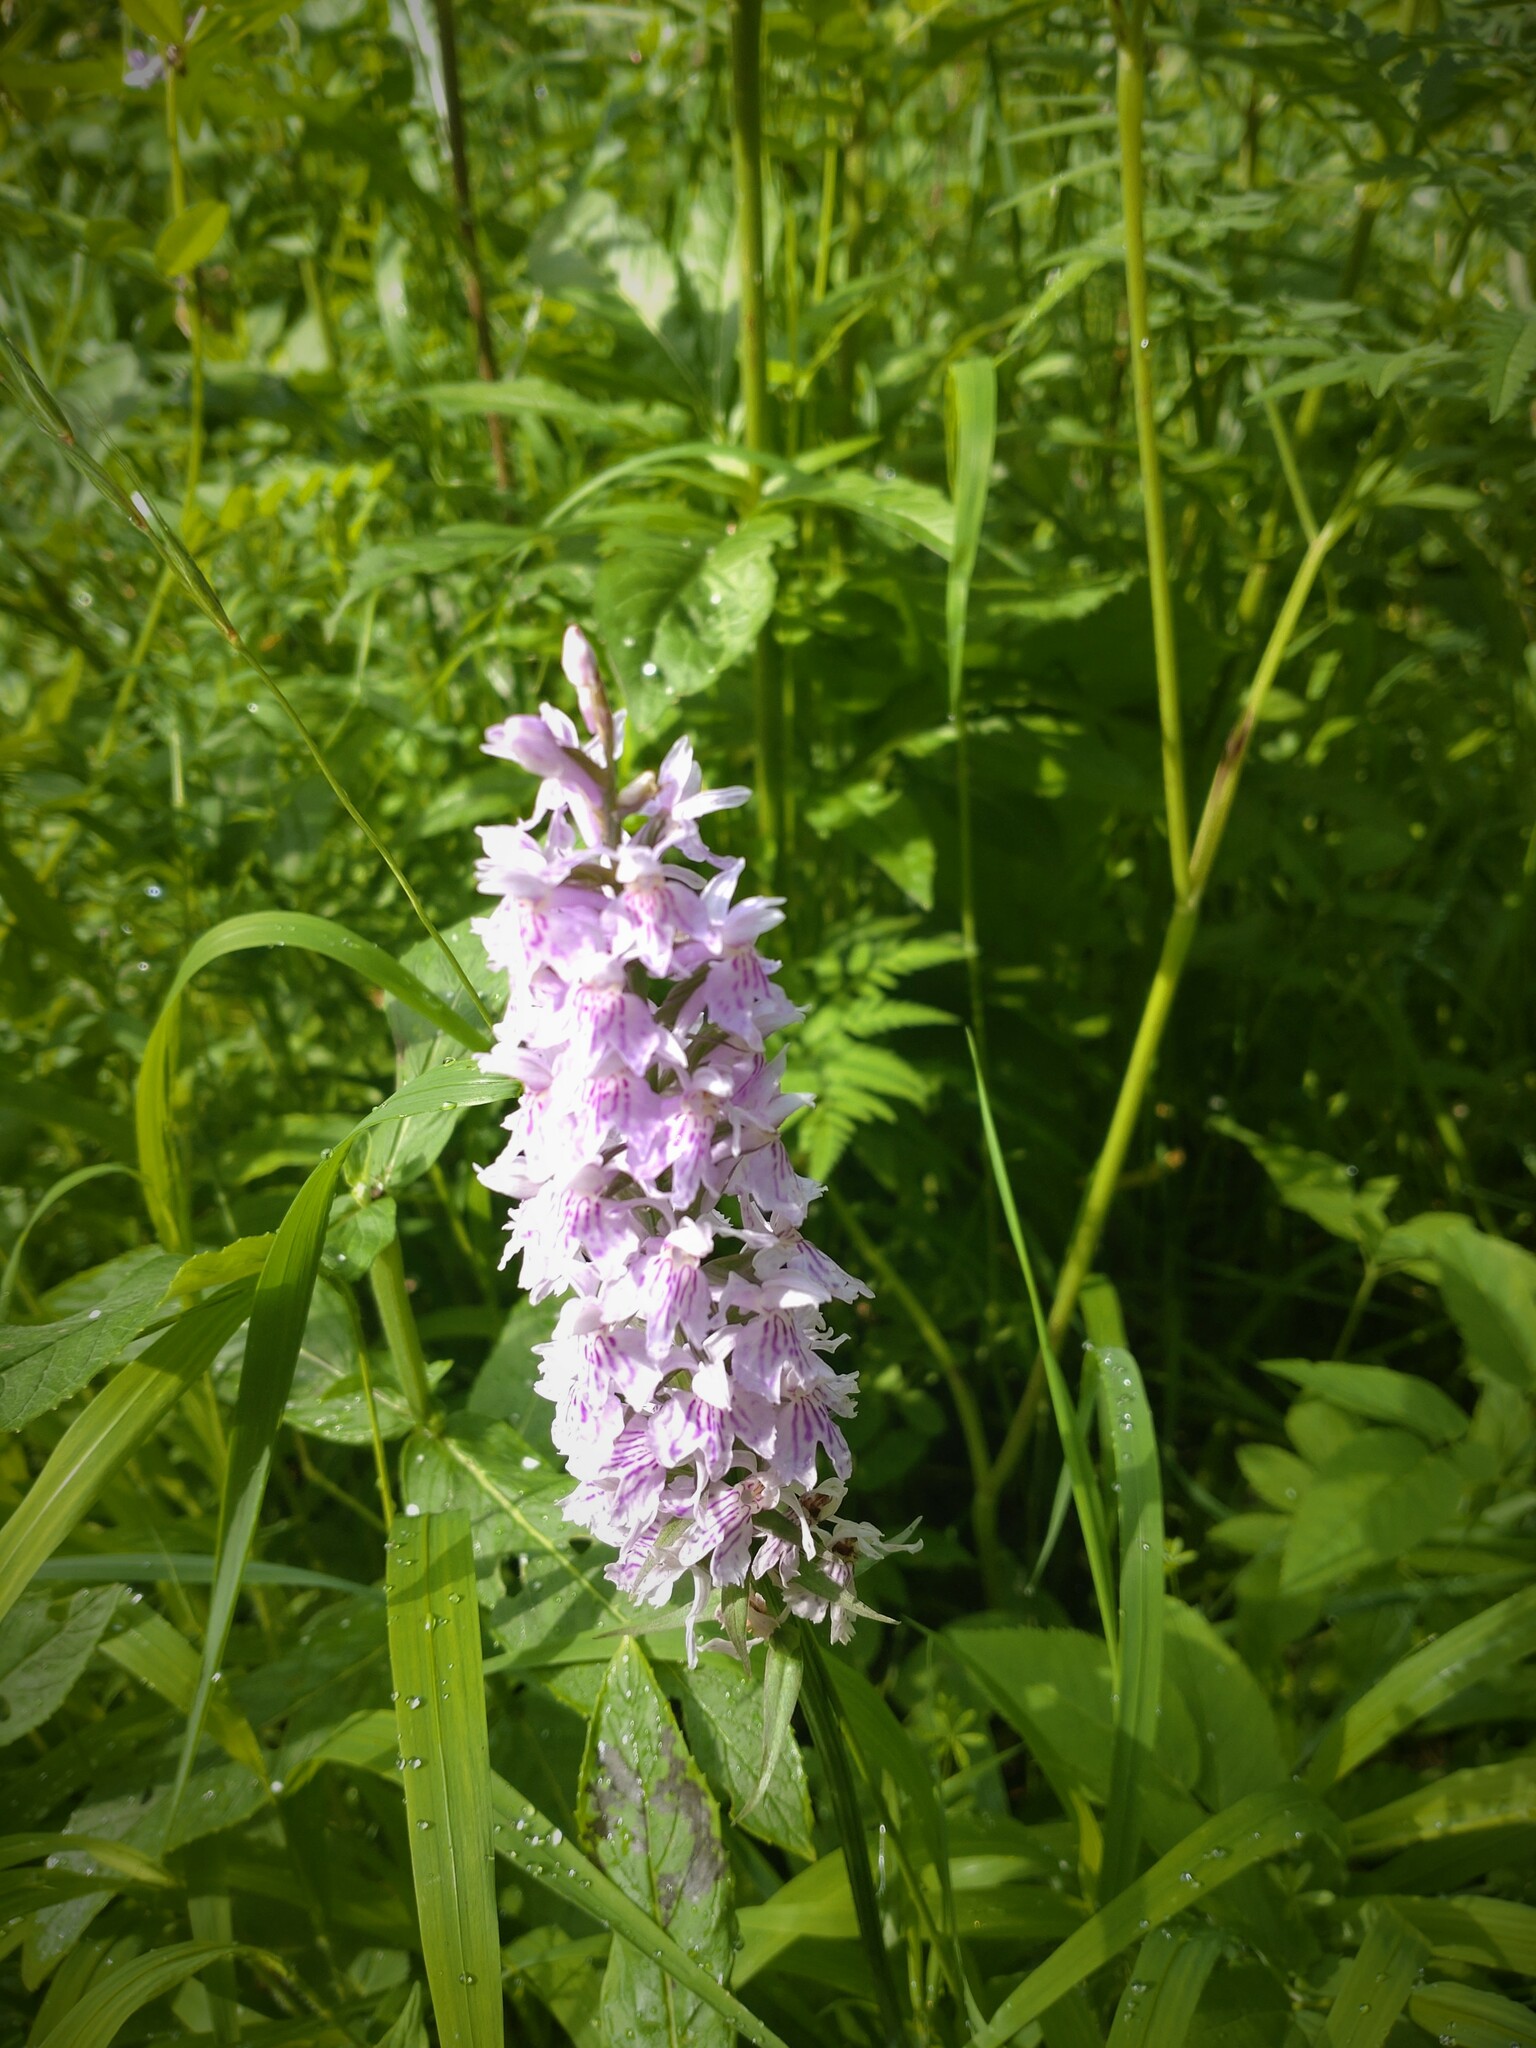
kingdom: Plantae
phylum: Tracheophyta
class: Liliopsida
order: Asparagales
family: Orchidaceae
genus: Dactylorhiza
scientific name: Dactylorhiza maculata
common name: Heath spotted-orchid
